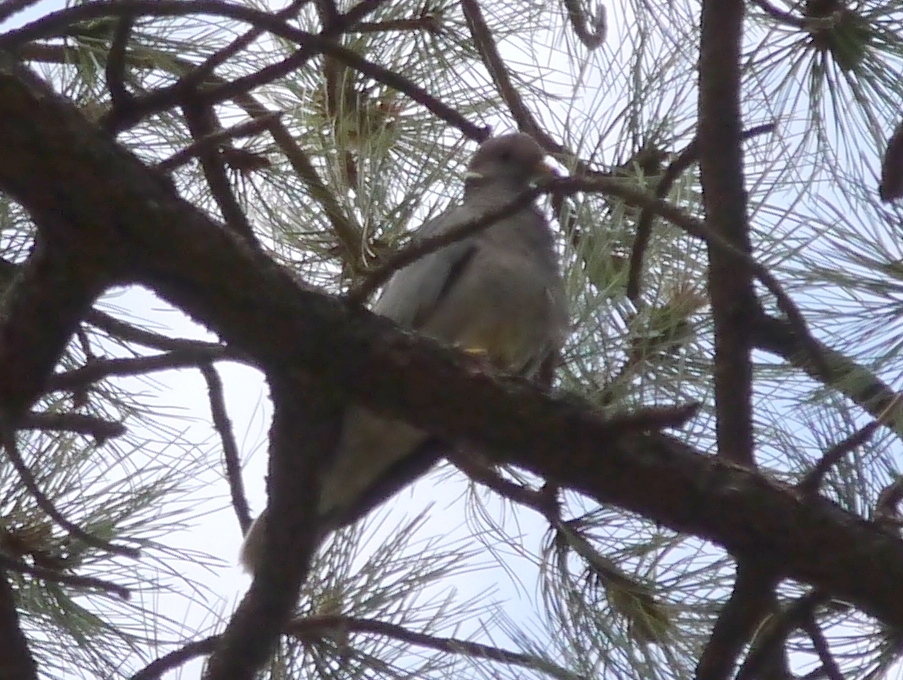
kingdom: Animalia
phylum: Chordata
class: Aves
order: Columbiformes
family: Columbidae
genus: Patagioenas
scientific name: Patagioenas fasciata
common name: Band-tailed pigeon
